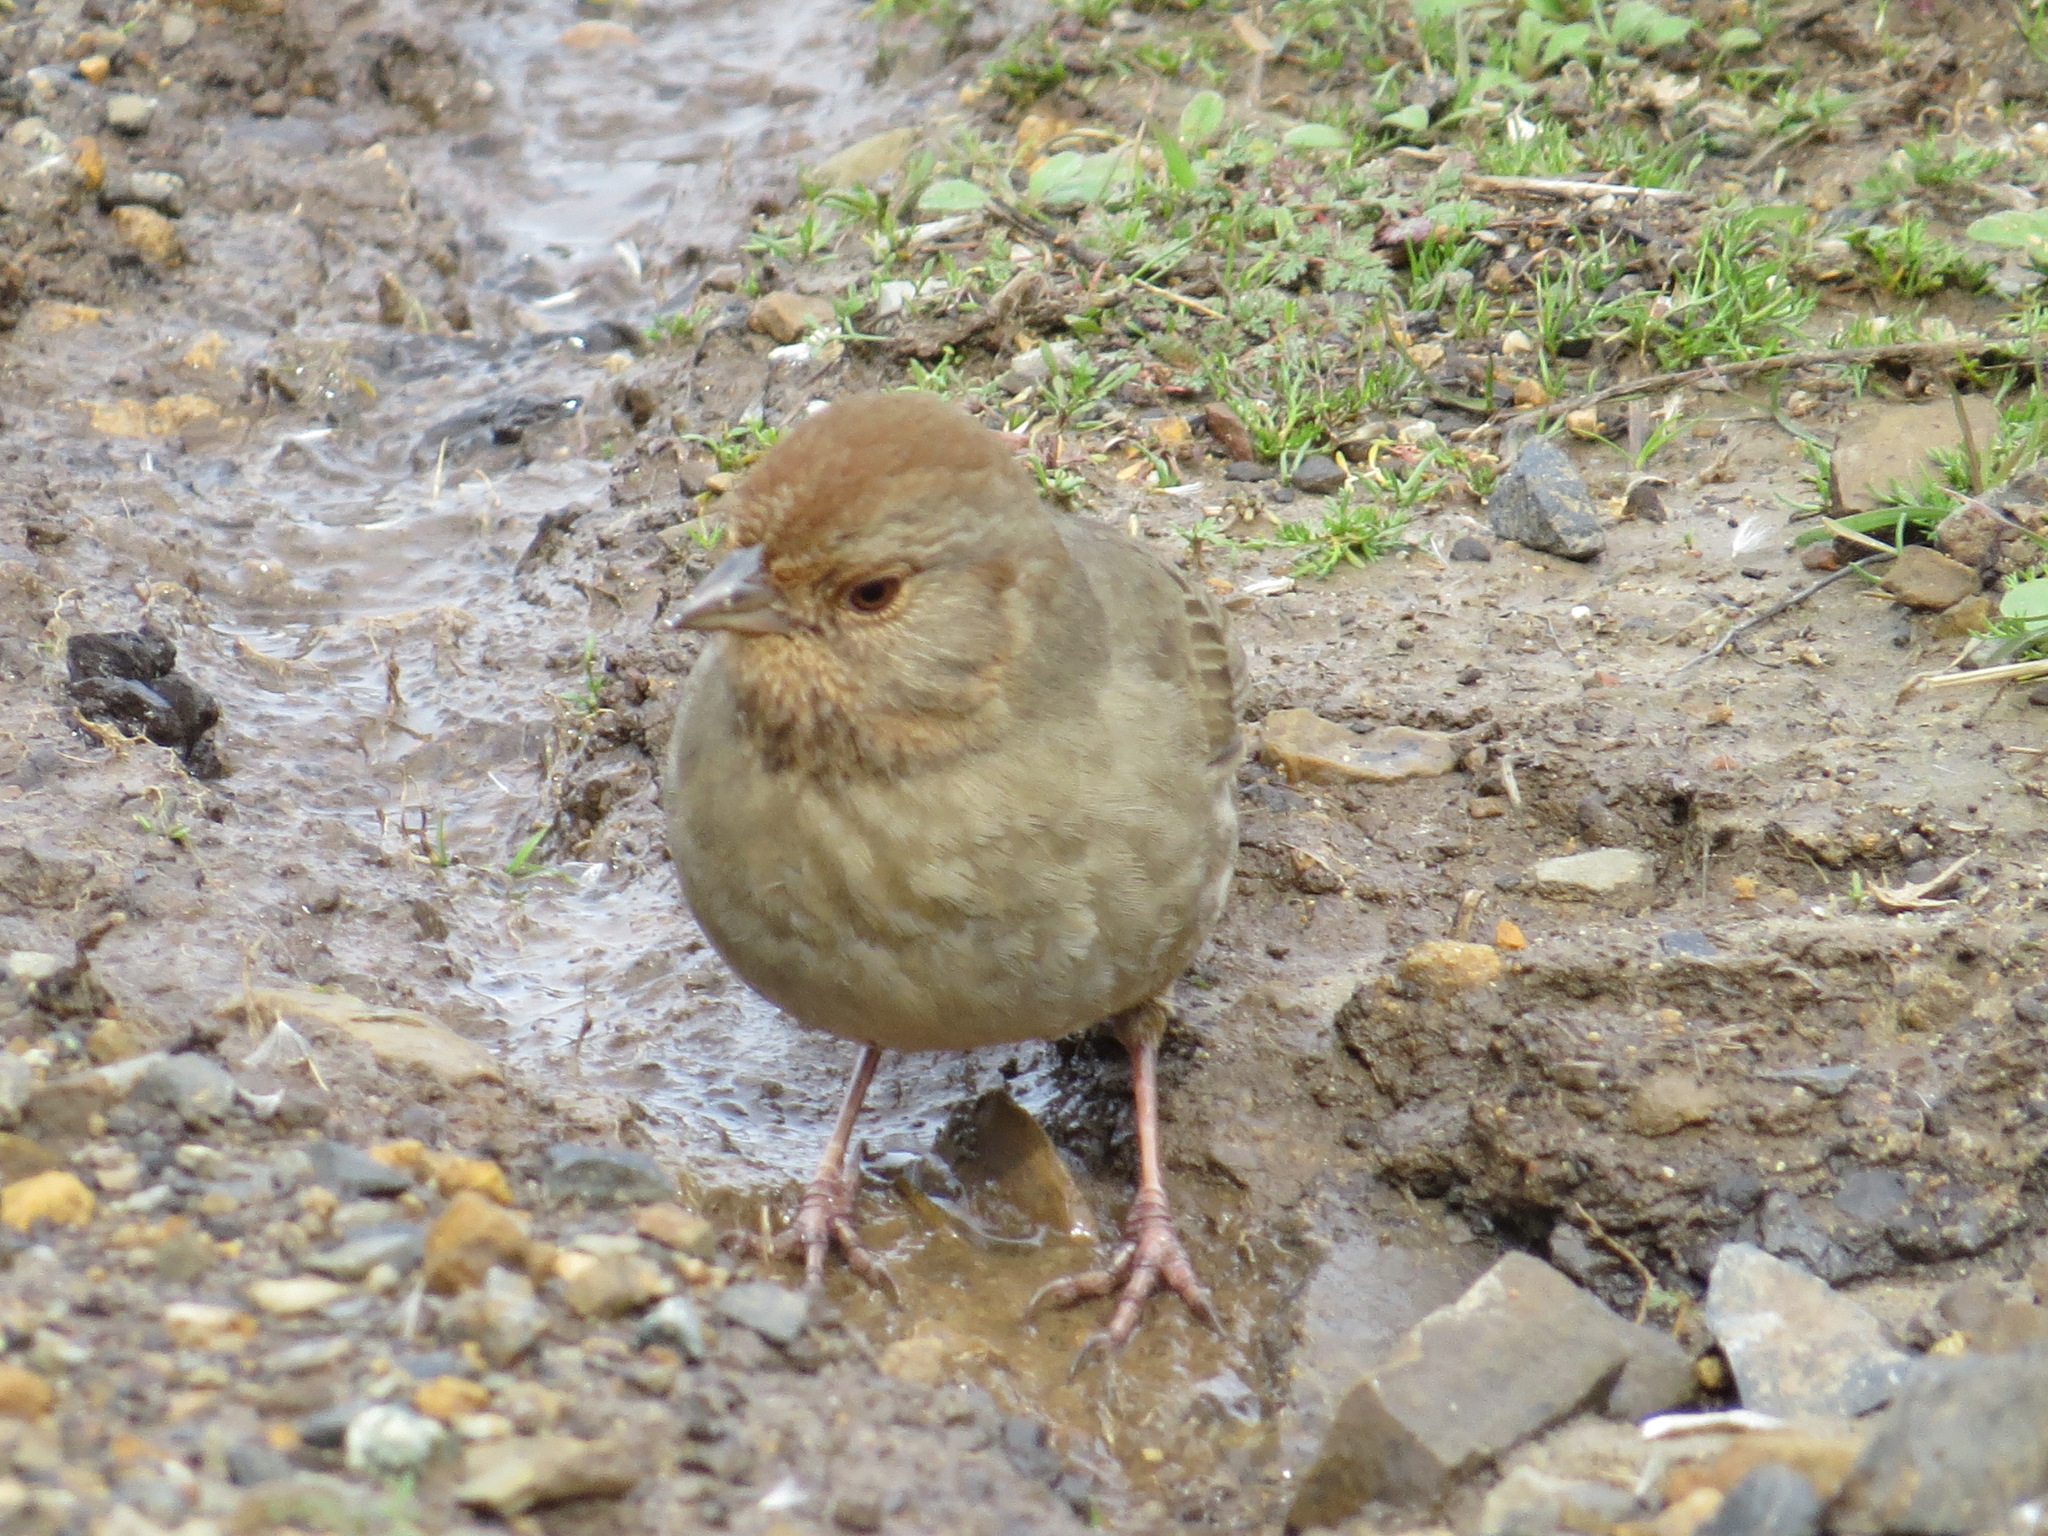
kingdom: Animalia
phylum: Chordata
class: Aves
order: Passeriformes
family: Passerellidae
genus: Melozone
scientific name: Melozone crissalis
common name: California towhee
